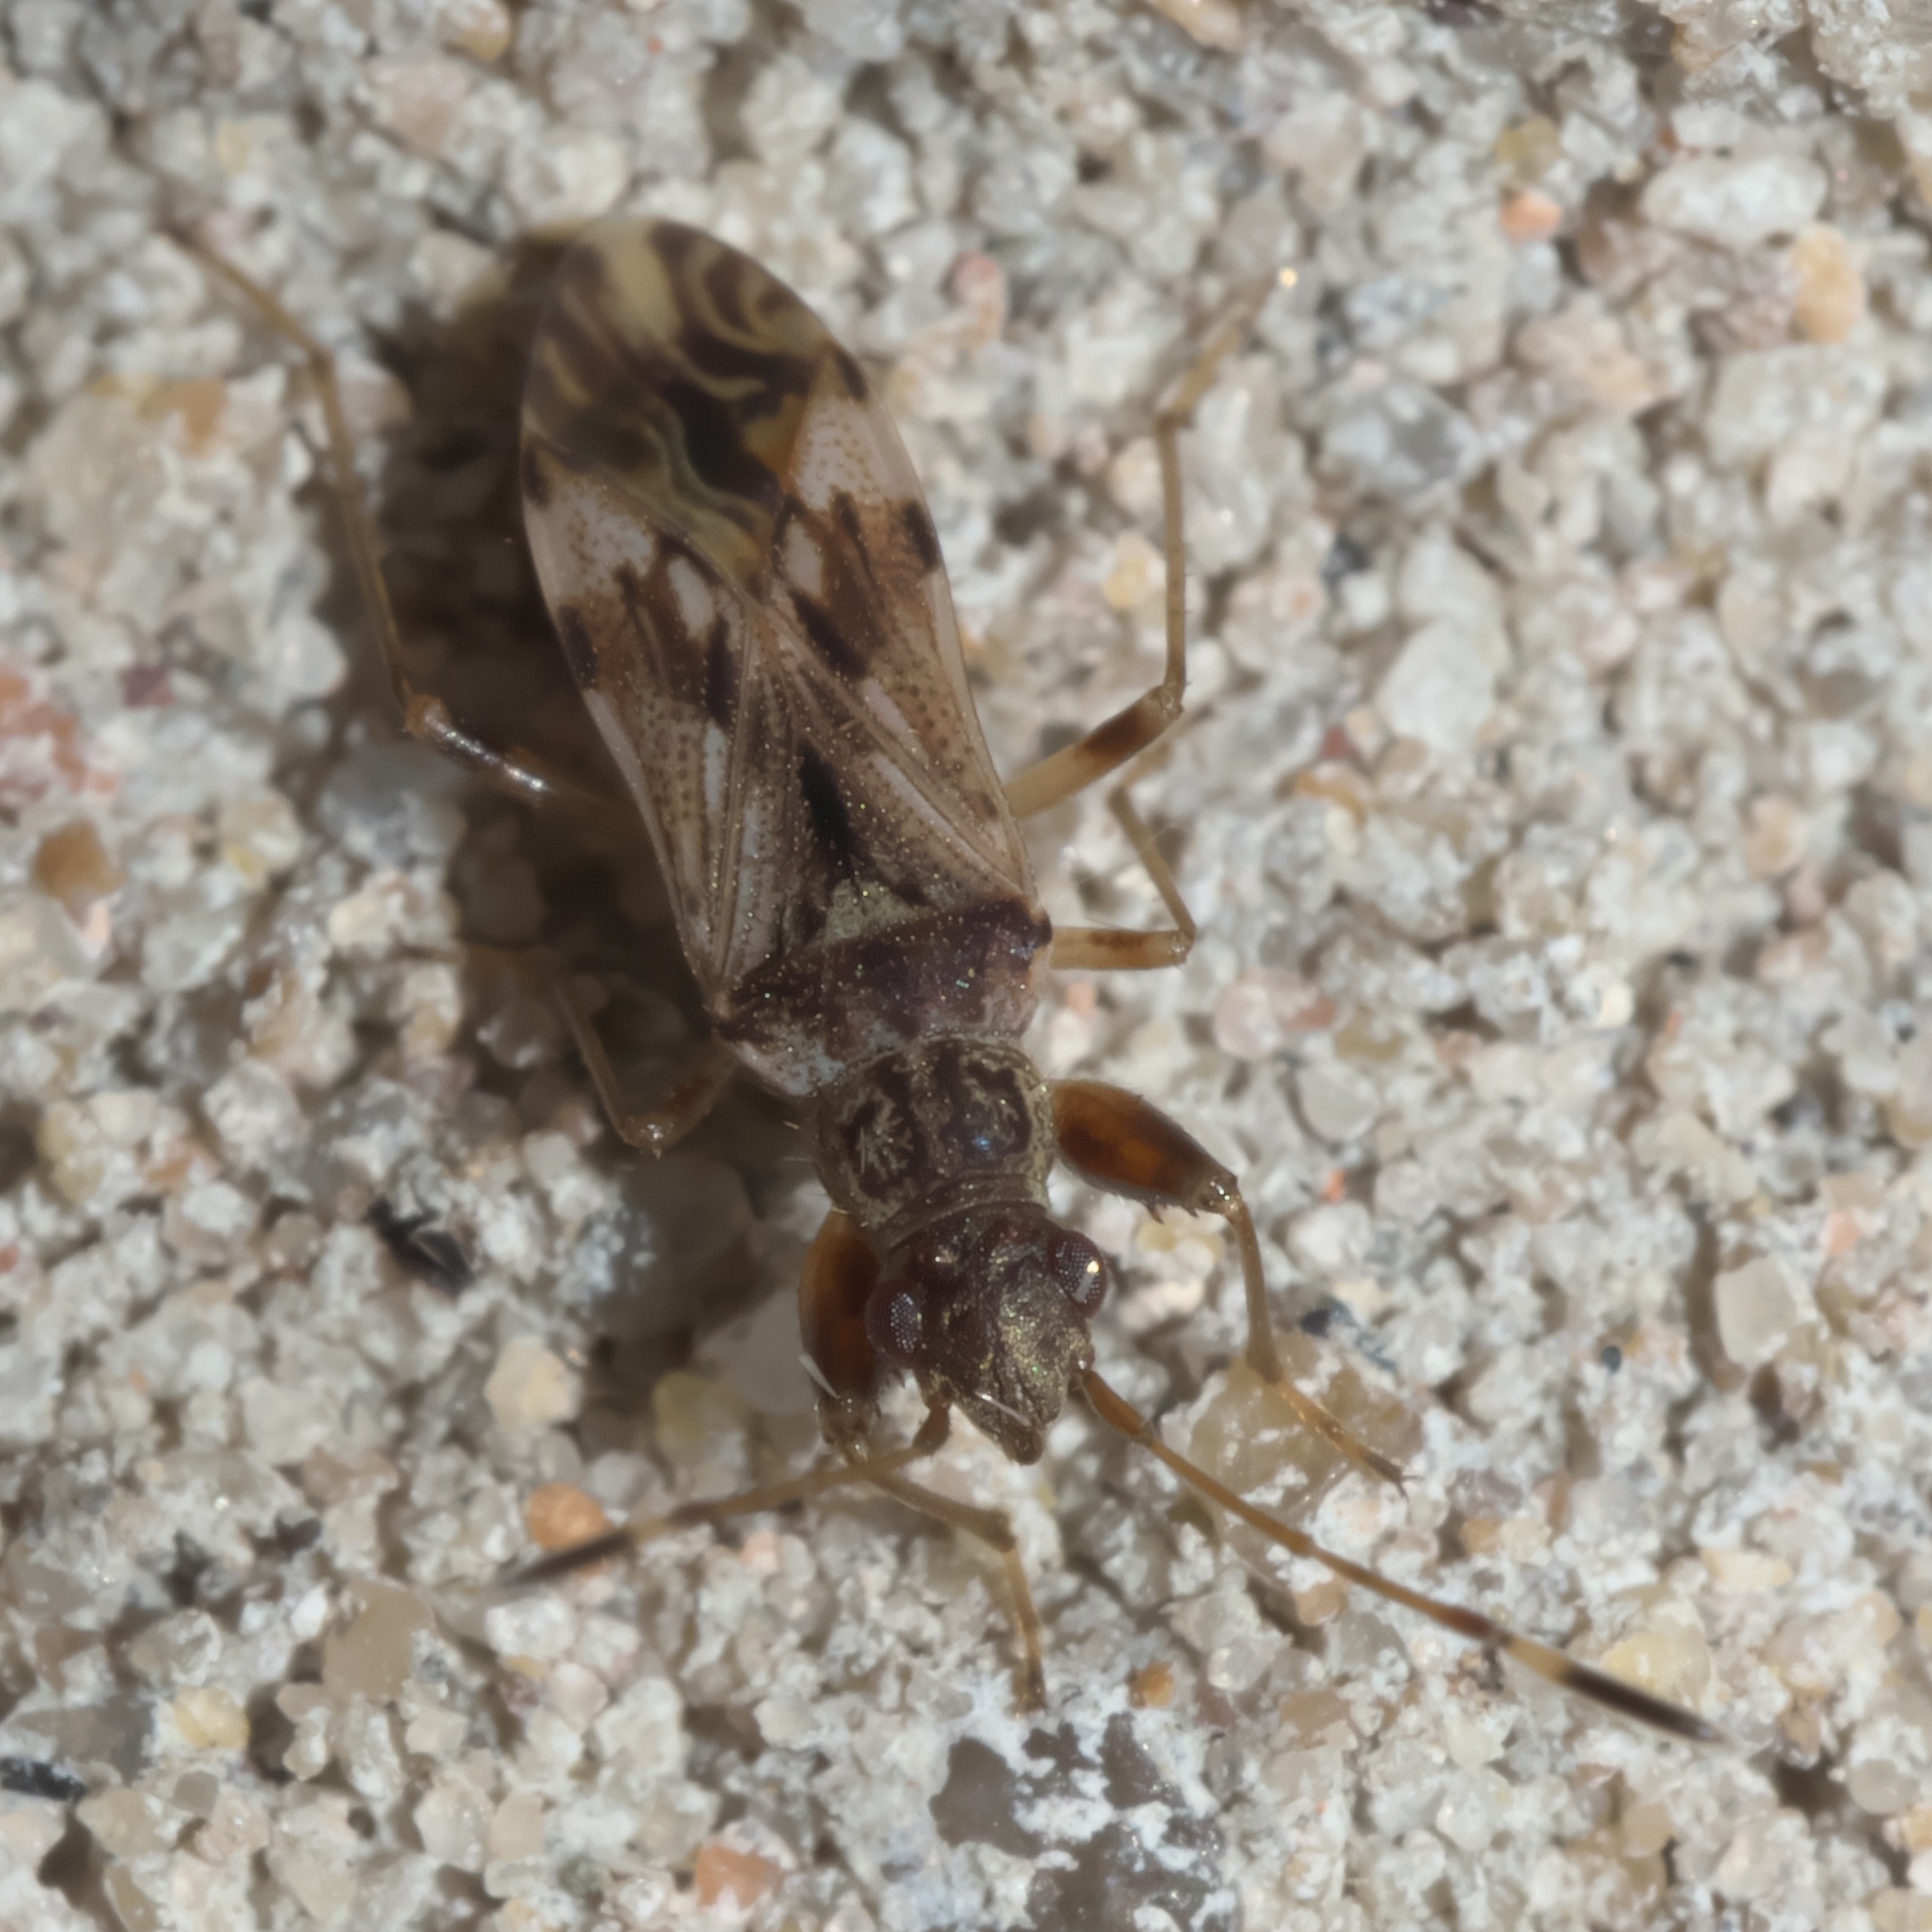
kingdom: Animalia
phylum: Arthropoda
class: Insecta
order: Hemiptera
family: Rhyparochromidae
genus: Neopamera
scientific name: Neopamera albocincta
